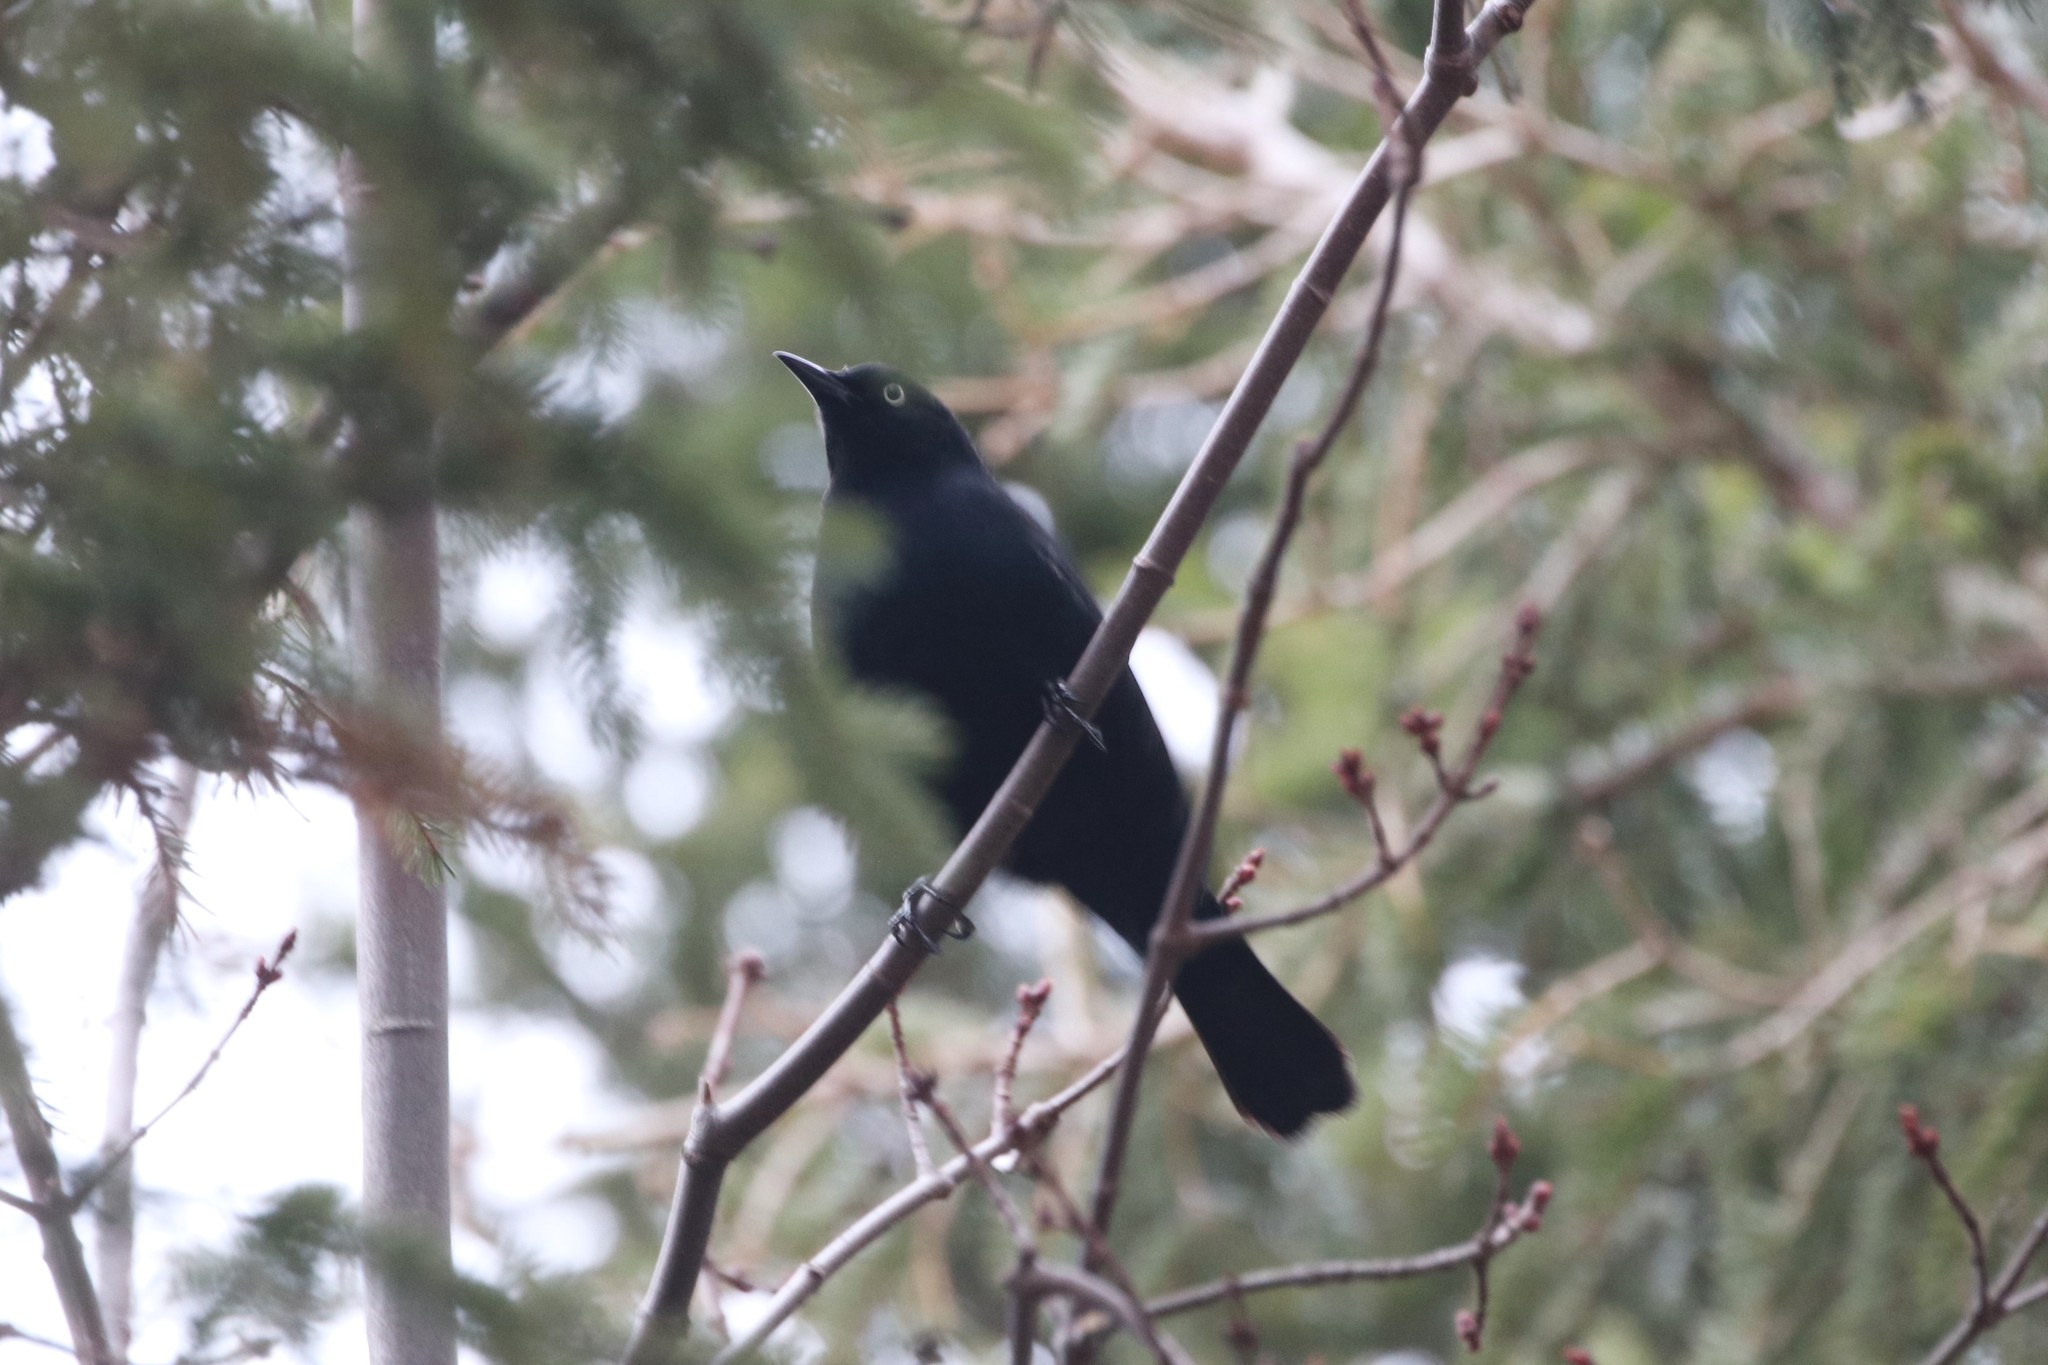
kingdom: Animalia
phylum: Chordata
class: Aves
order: Passeriformes
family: Icteridae
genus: Euphagus
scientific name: Euphagus carolinus
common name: Rusty blackbird
